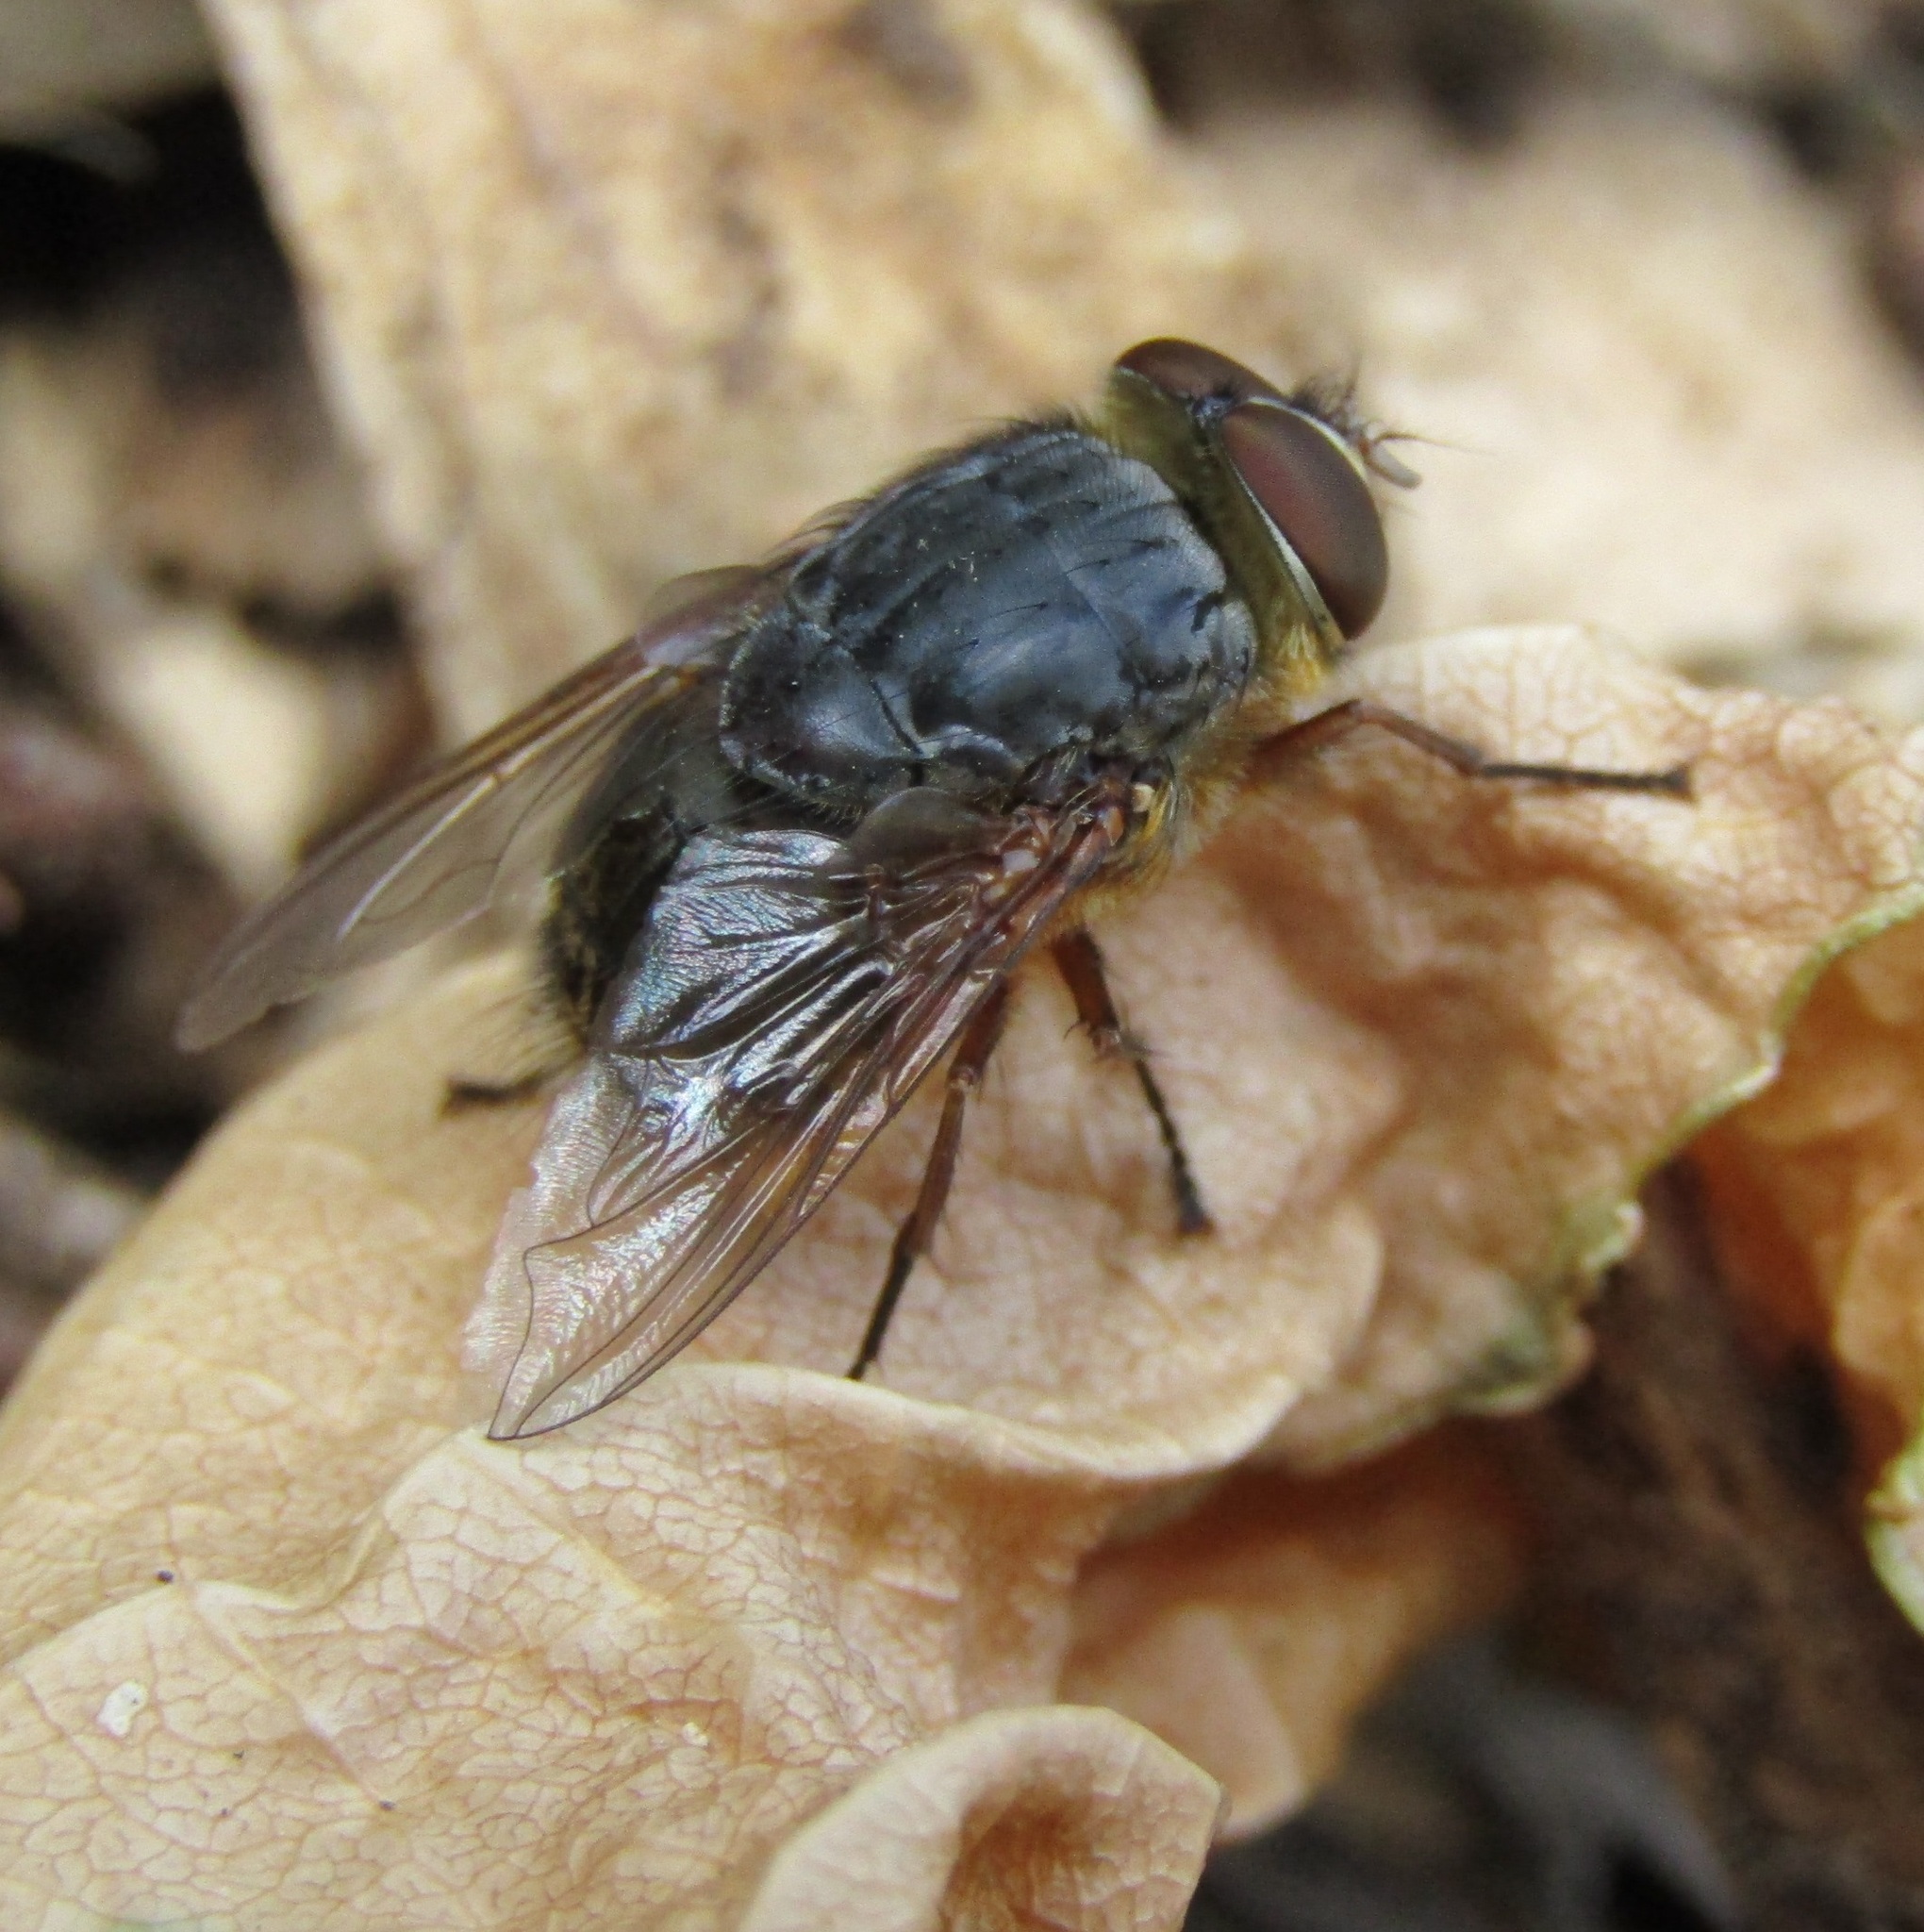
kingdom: Animalia
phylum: Arthropoda
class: Insecta
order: Diptera
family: Calliphoridae
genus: Calliphora
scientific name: Calliphora stygia
